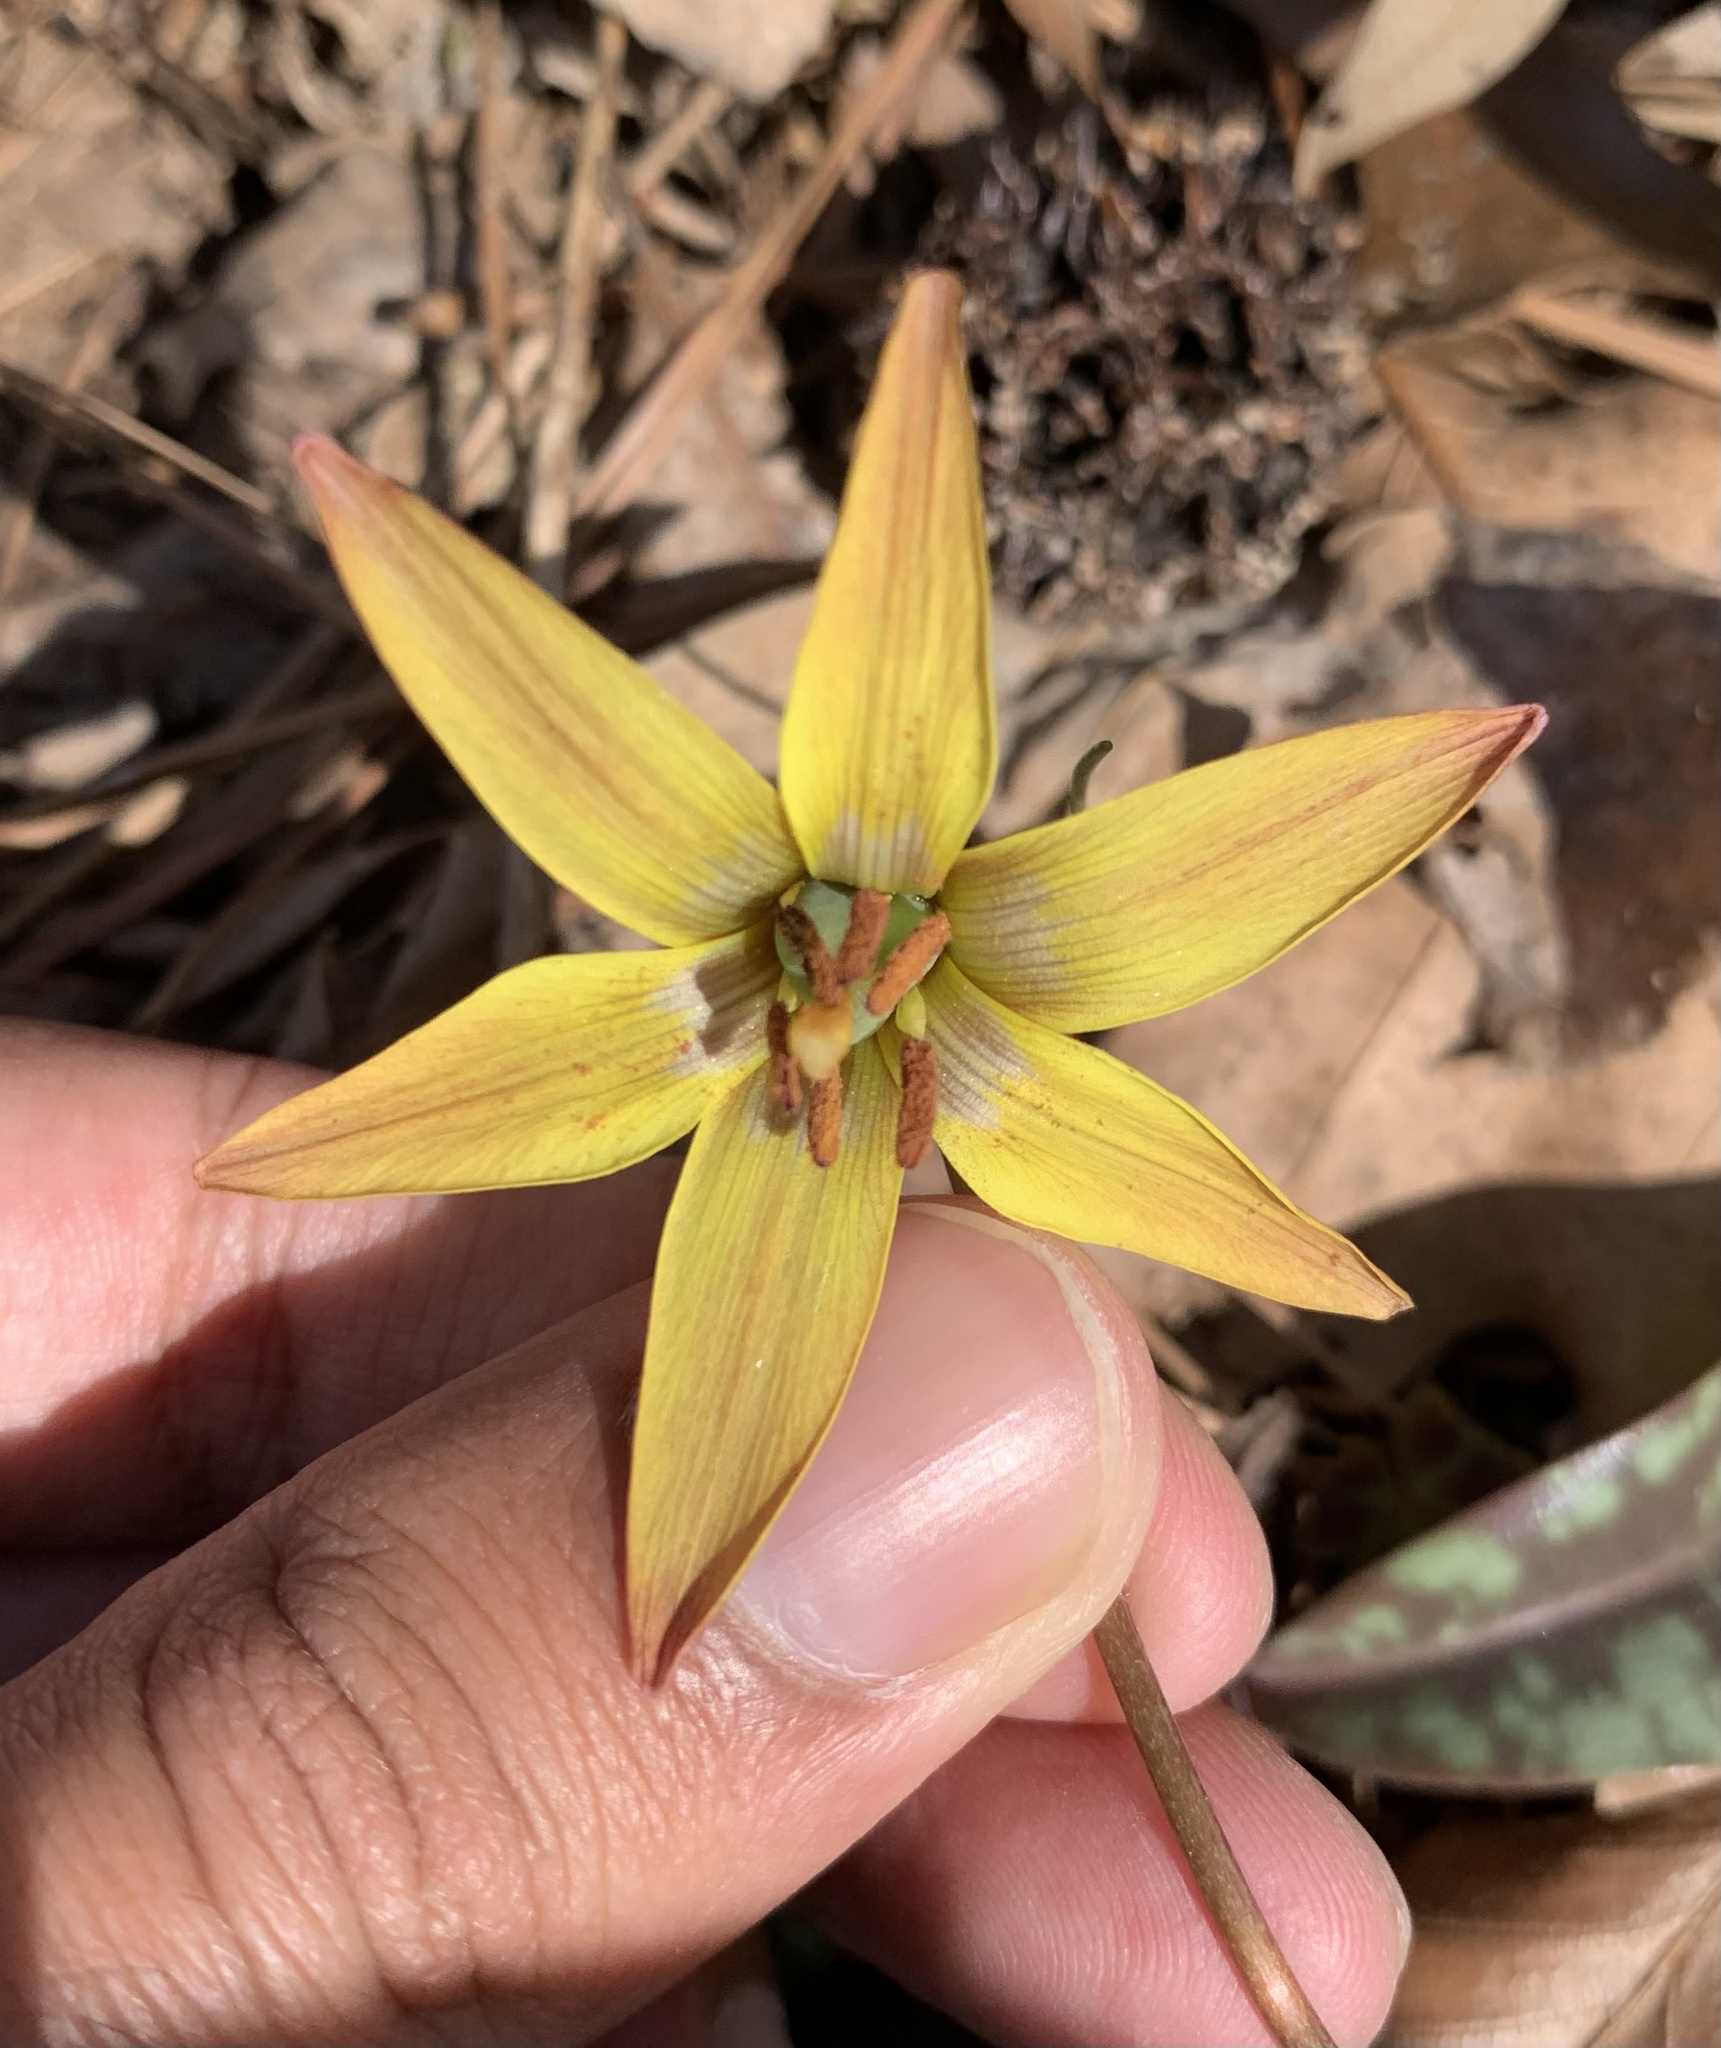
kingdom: Plantae
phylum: Tracheophyta
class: Liliopsida
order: Liliales
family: Liliaceae
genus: Erythronium
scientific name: Erythronium umbilicatum
